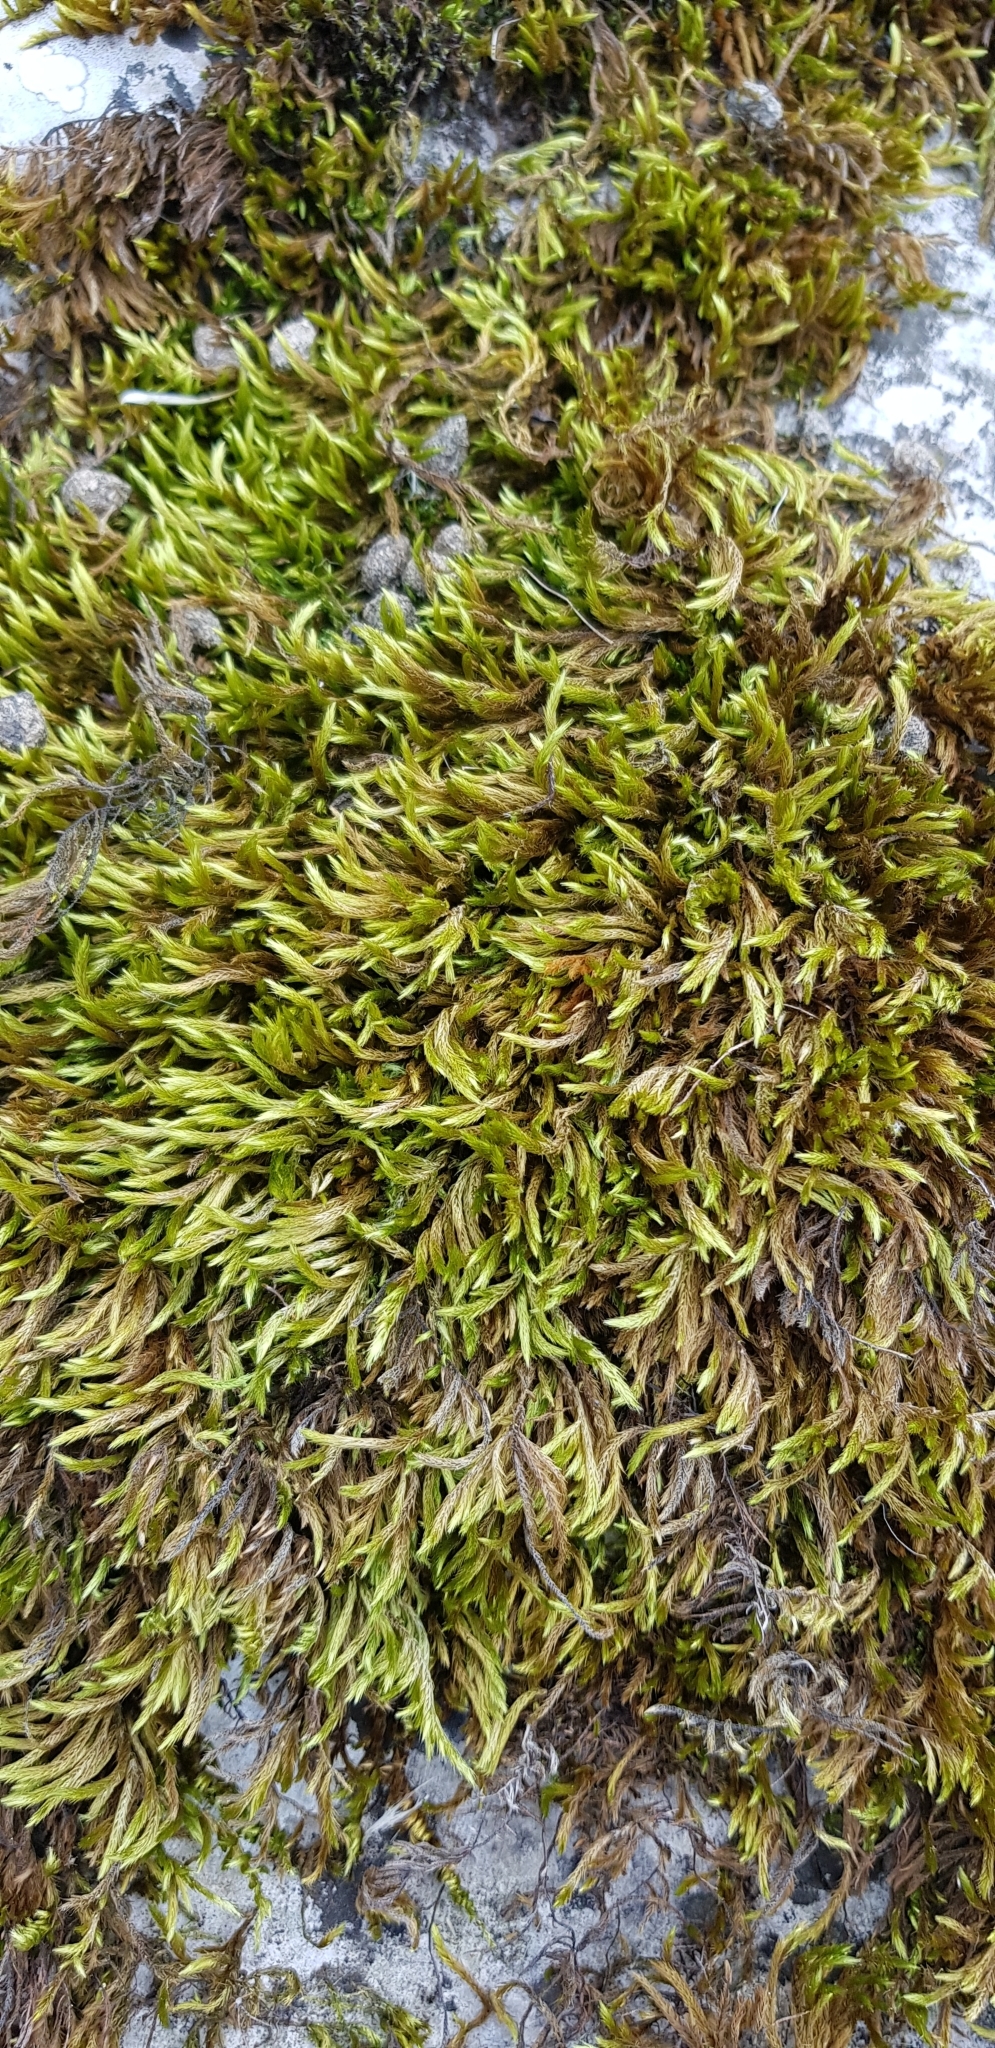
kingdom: Plantae
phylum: Bryophyta
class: Bryopsida
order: Hypnales
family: Brachytheciaceae
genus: Homalothecium
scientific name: Homalothecium lutescens
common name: Yellow feather-moss
